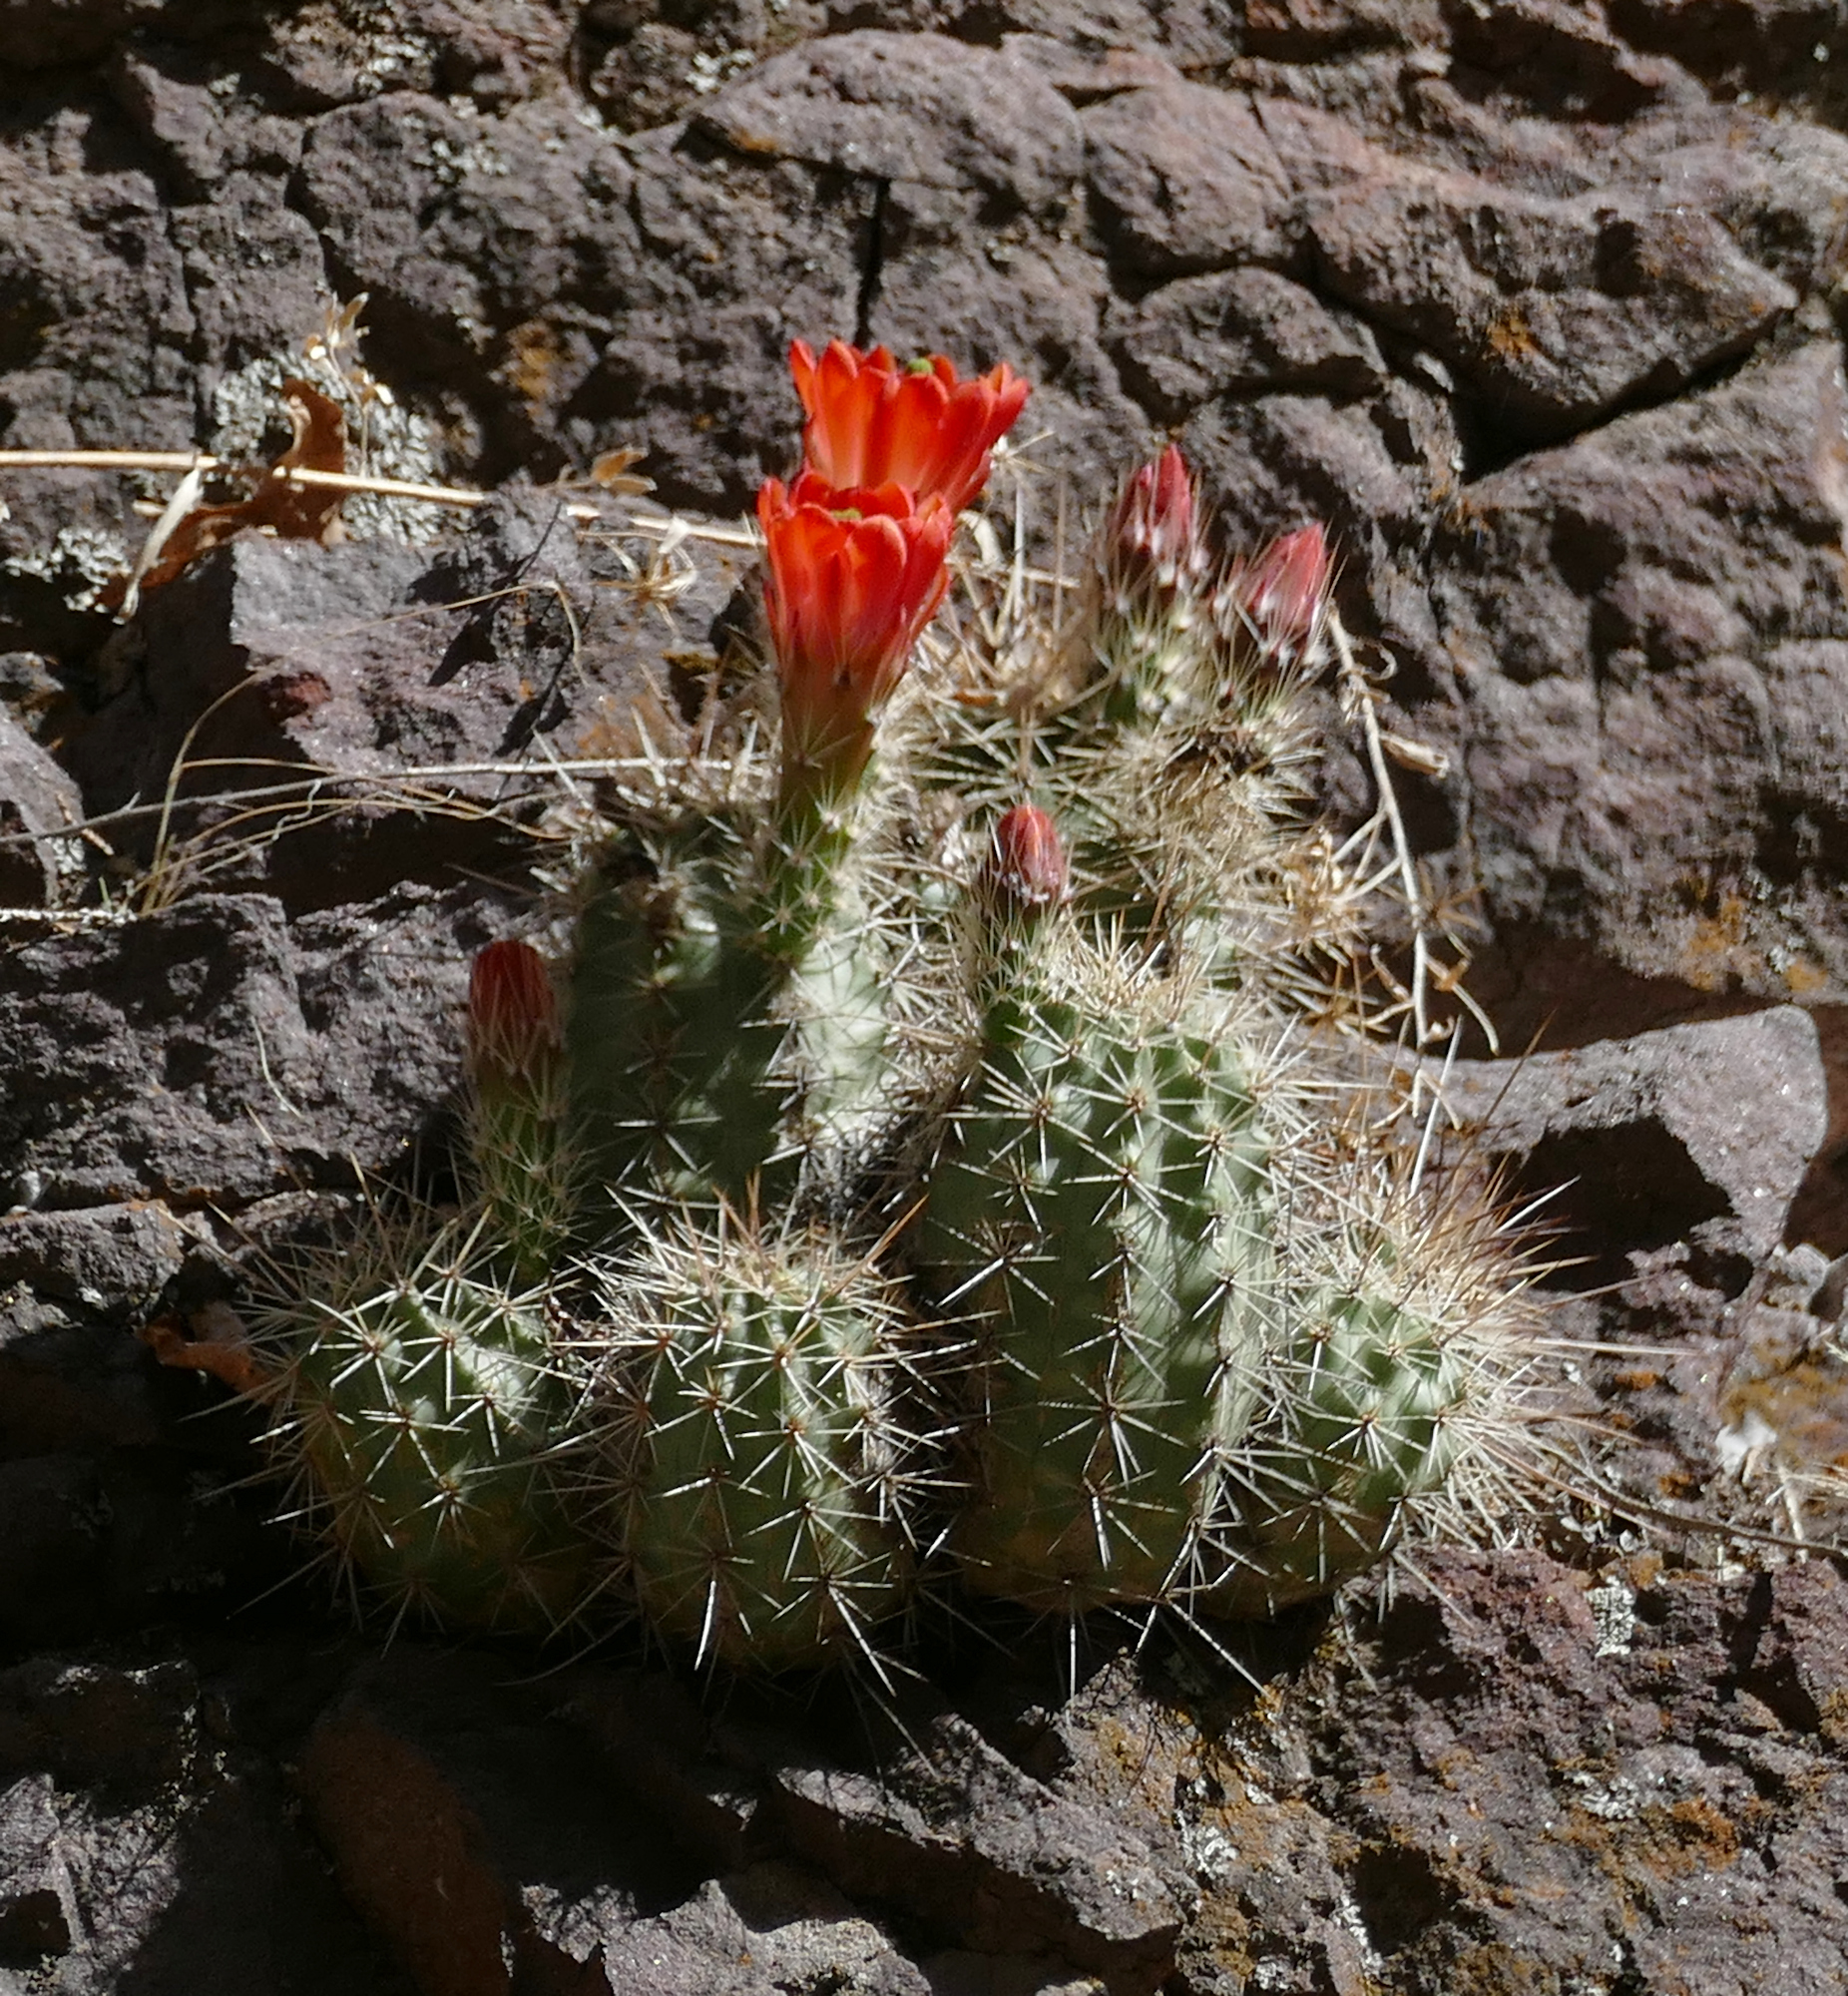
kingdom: Plantae
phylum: Tracheophyta
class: Magnoliopsida
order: Caryophyllales
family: Cactaceae
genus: Echinocereus
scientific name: Echinocereus coccineus
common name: Scarlet hedgehog cactus
